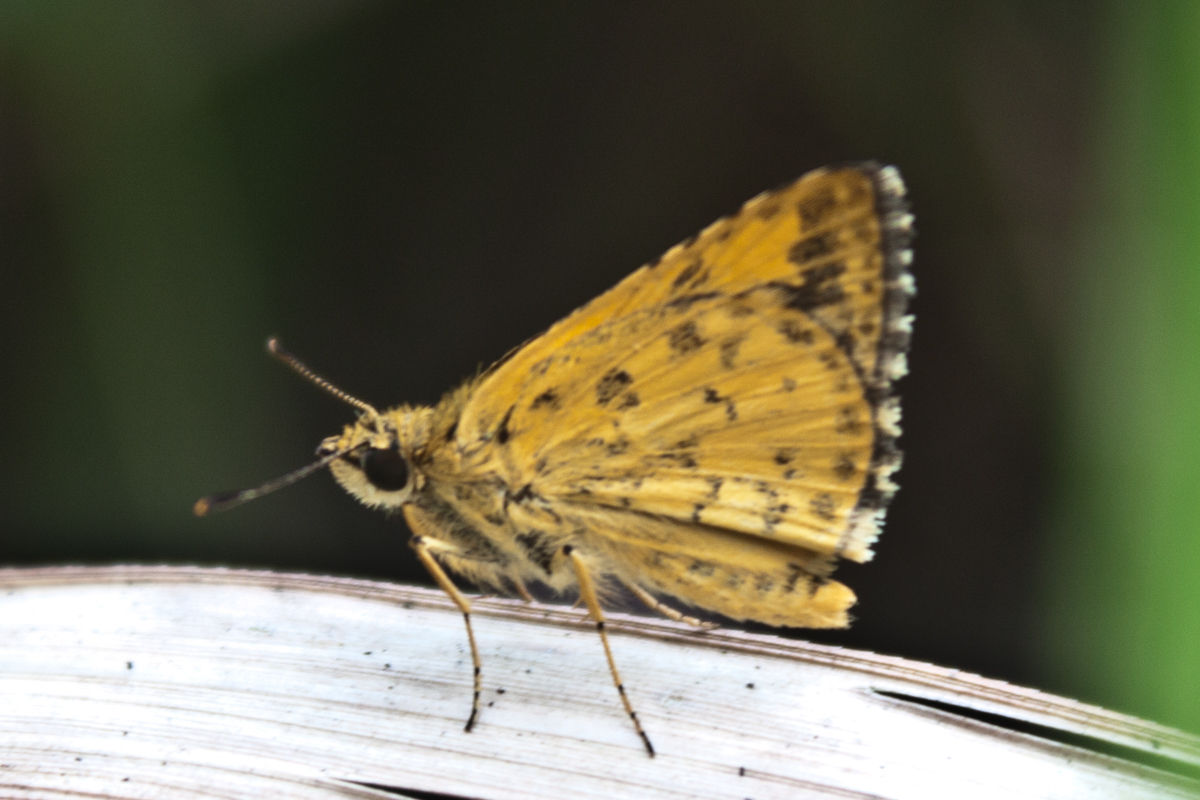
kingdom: Animalia
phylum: Arthropoda
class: Insecta
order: Lepidoptera
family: Hesperiidae
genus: Ampittia
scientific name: Ampittia dioscorides
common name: Common bush hopper
